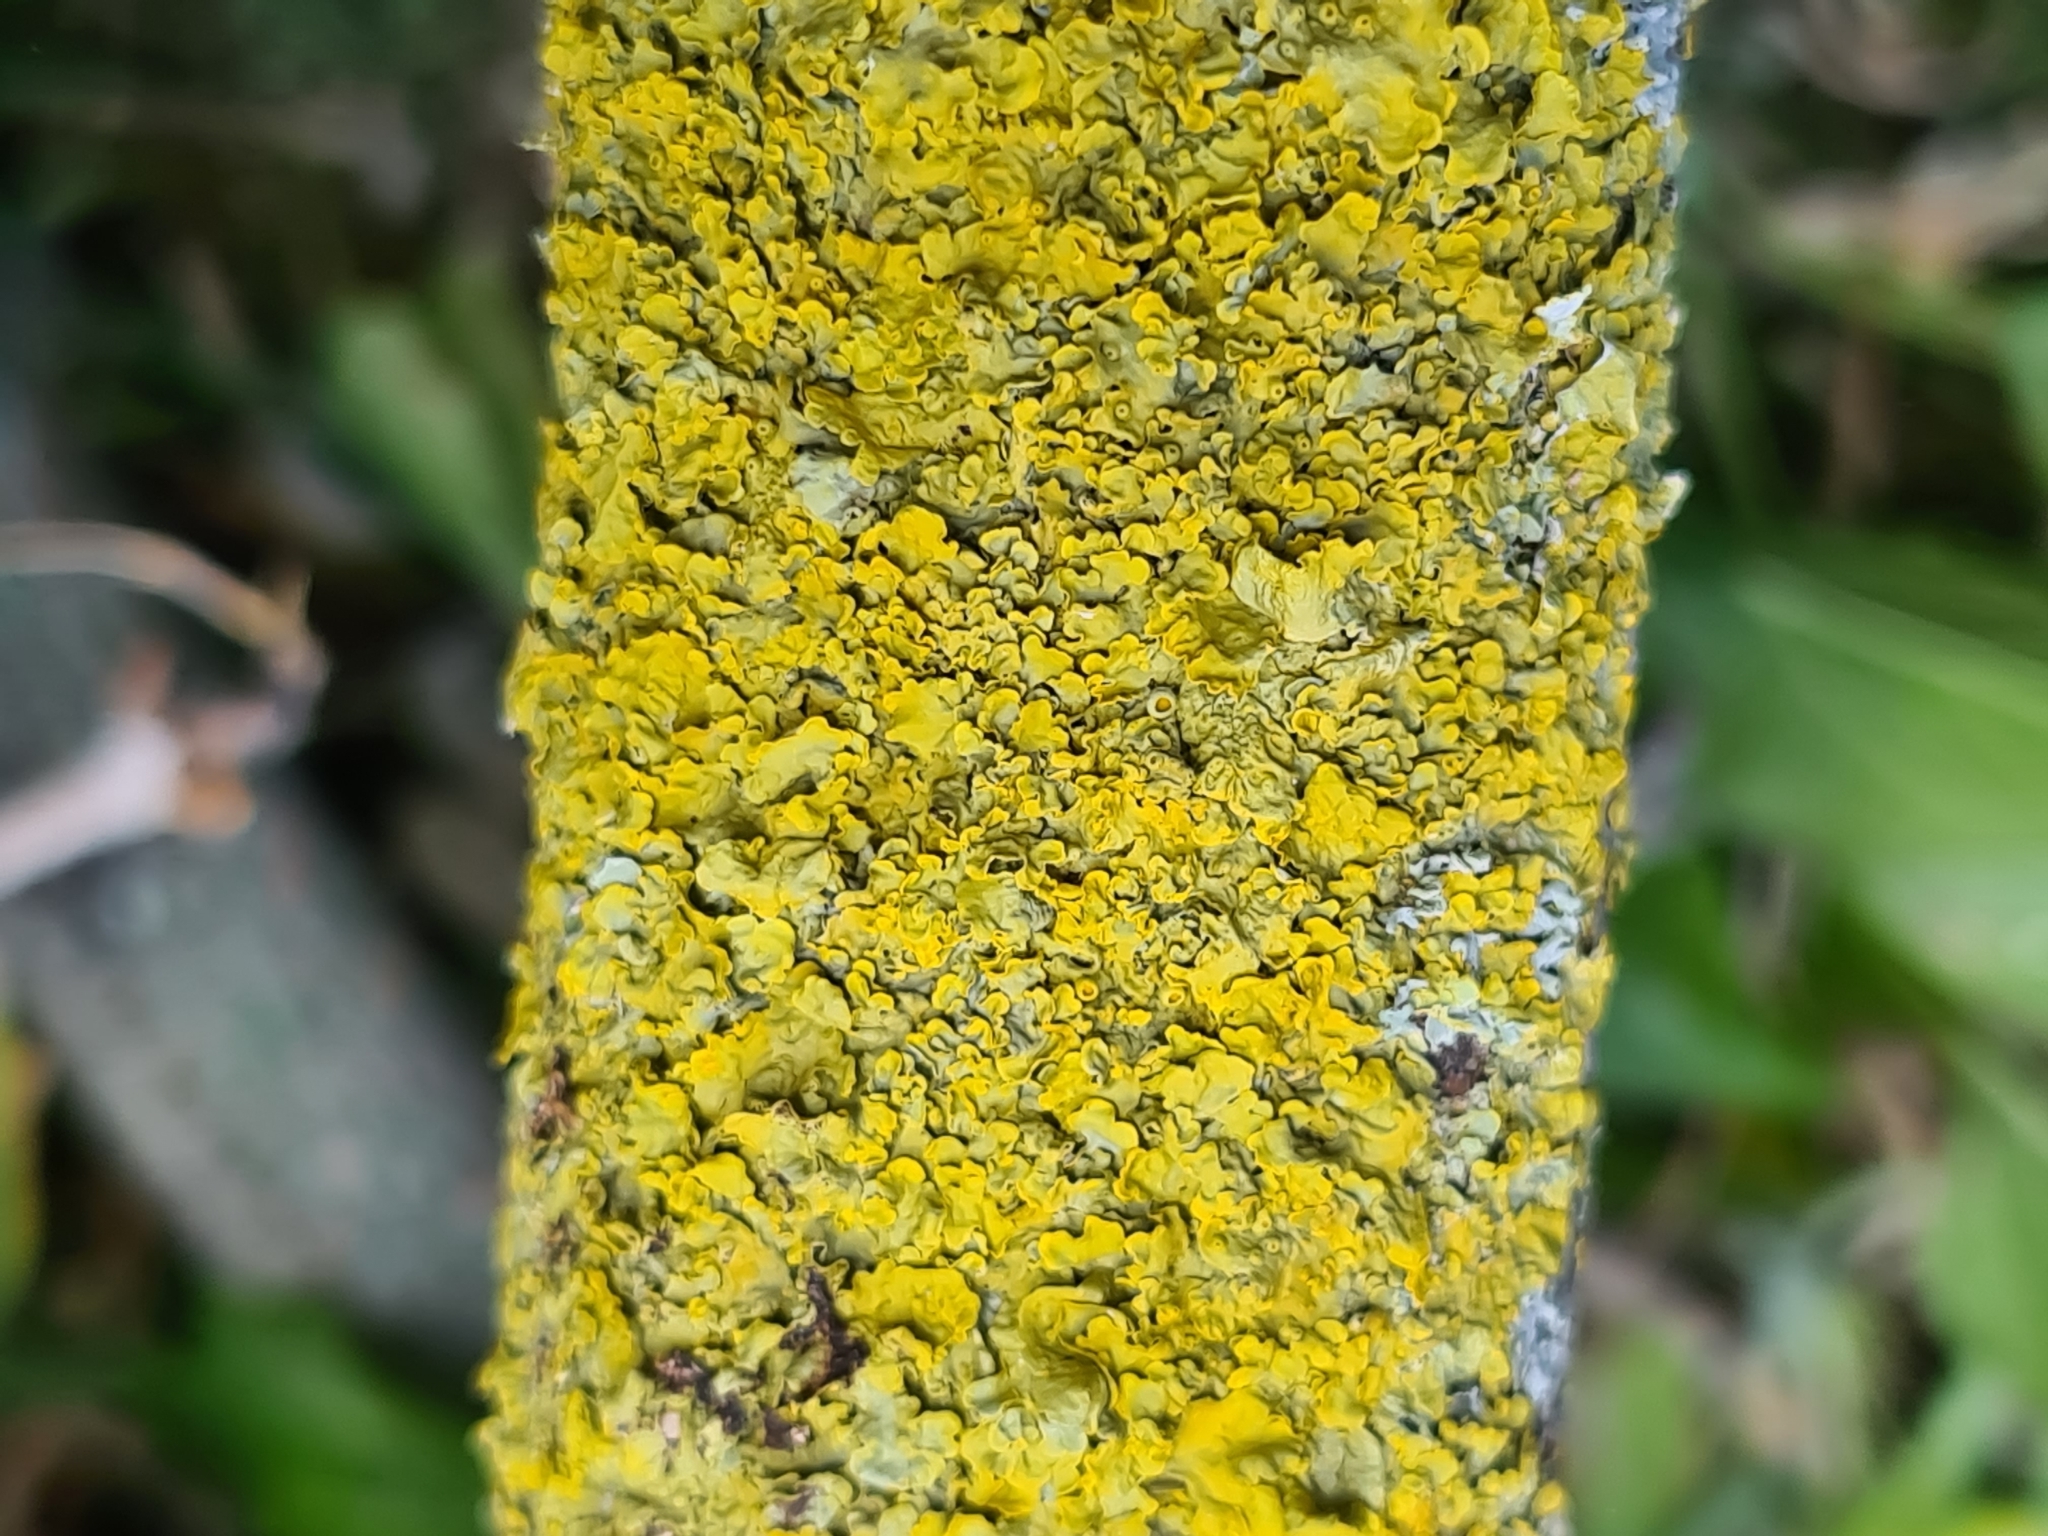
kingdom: Fungi
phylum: Ascomycota
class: Lecanoromycetes
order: Teloschistales
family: Teloschistaceae
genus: Xanthoria
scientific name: Xanthoria parietina
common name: Common orange lichen
